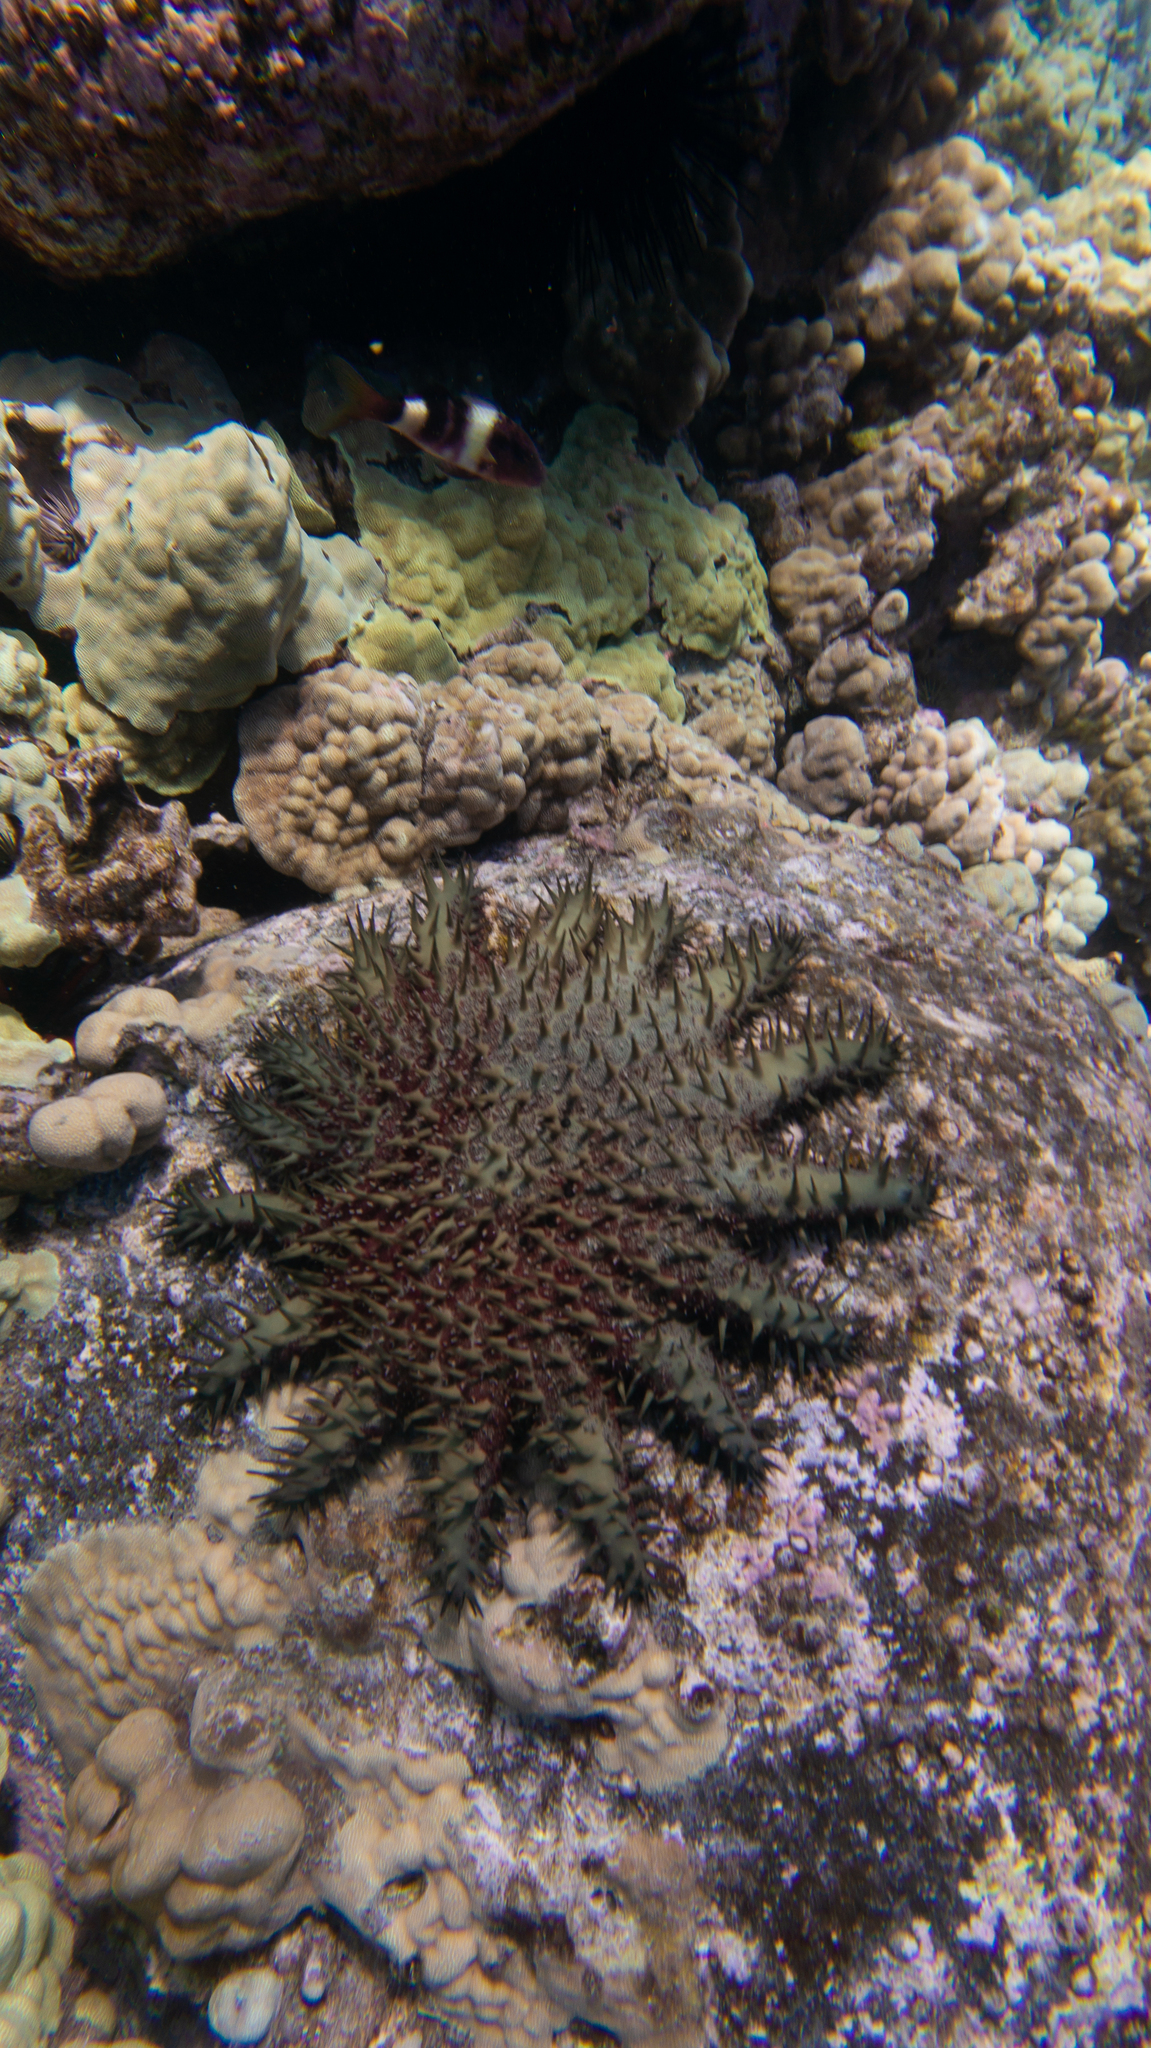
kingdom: Animalia
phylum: Echinodermata
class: Asteroidea
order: Valvatida
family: Acanthasteridae
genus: Acanthaster
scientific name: Acanthaster planci
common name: Crown-of-thorns
